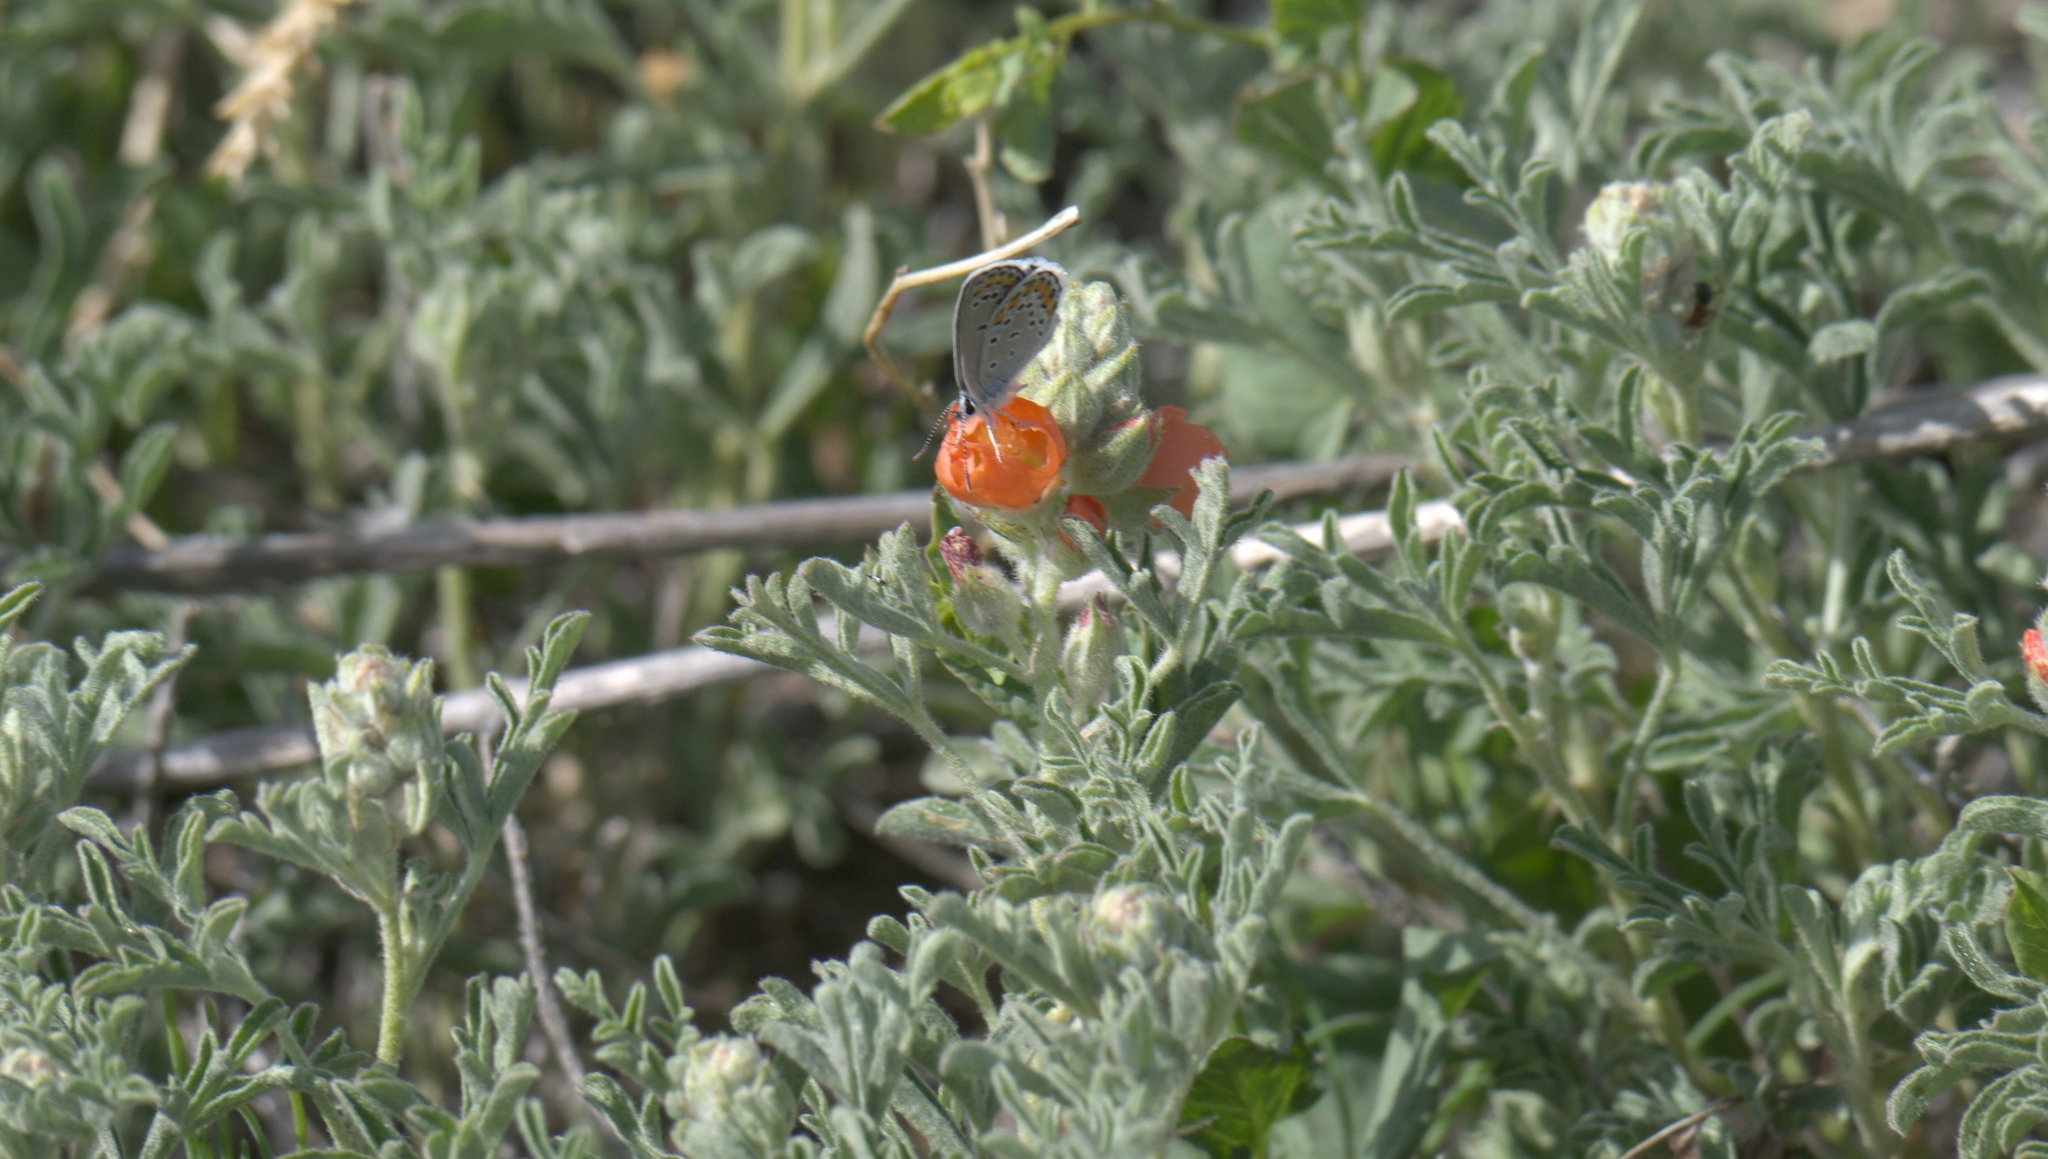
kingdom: Plantae
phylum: Tracheophyta
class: Magnoliopsida
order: Malvales
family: Malvaceae
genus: Sphaeralcea
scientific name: Sphaeralcea coccinea
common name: Moss-rose
